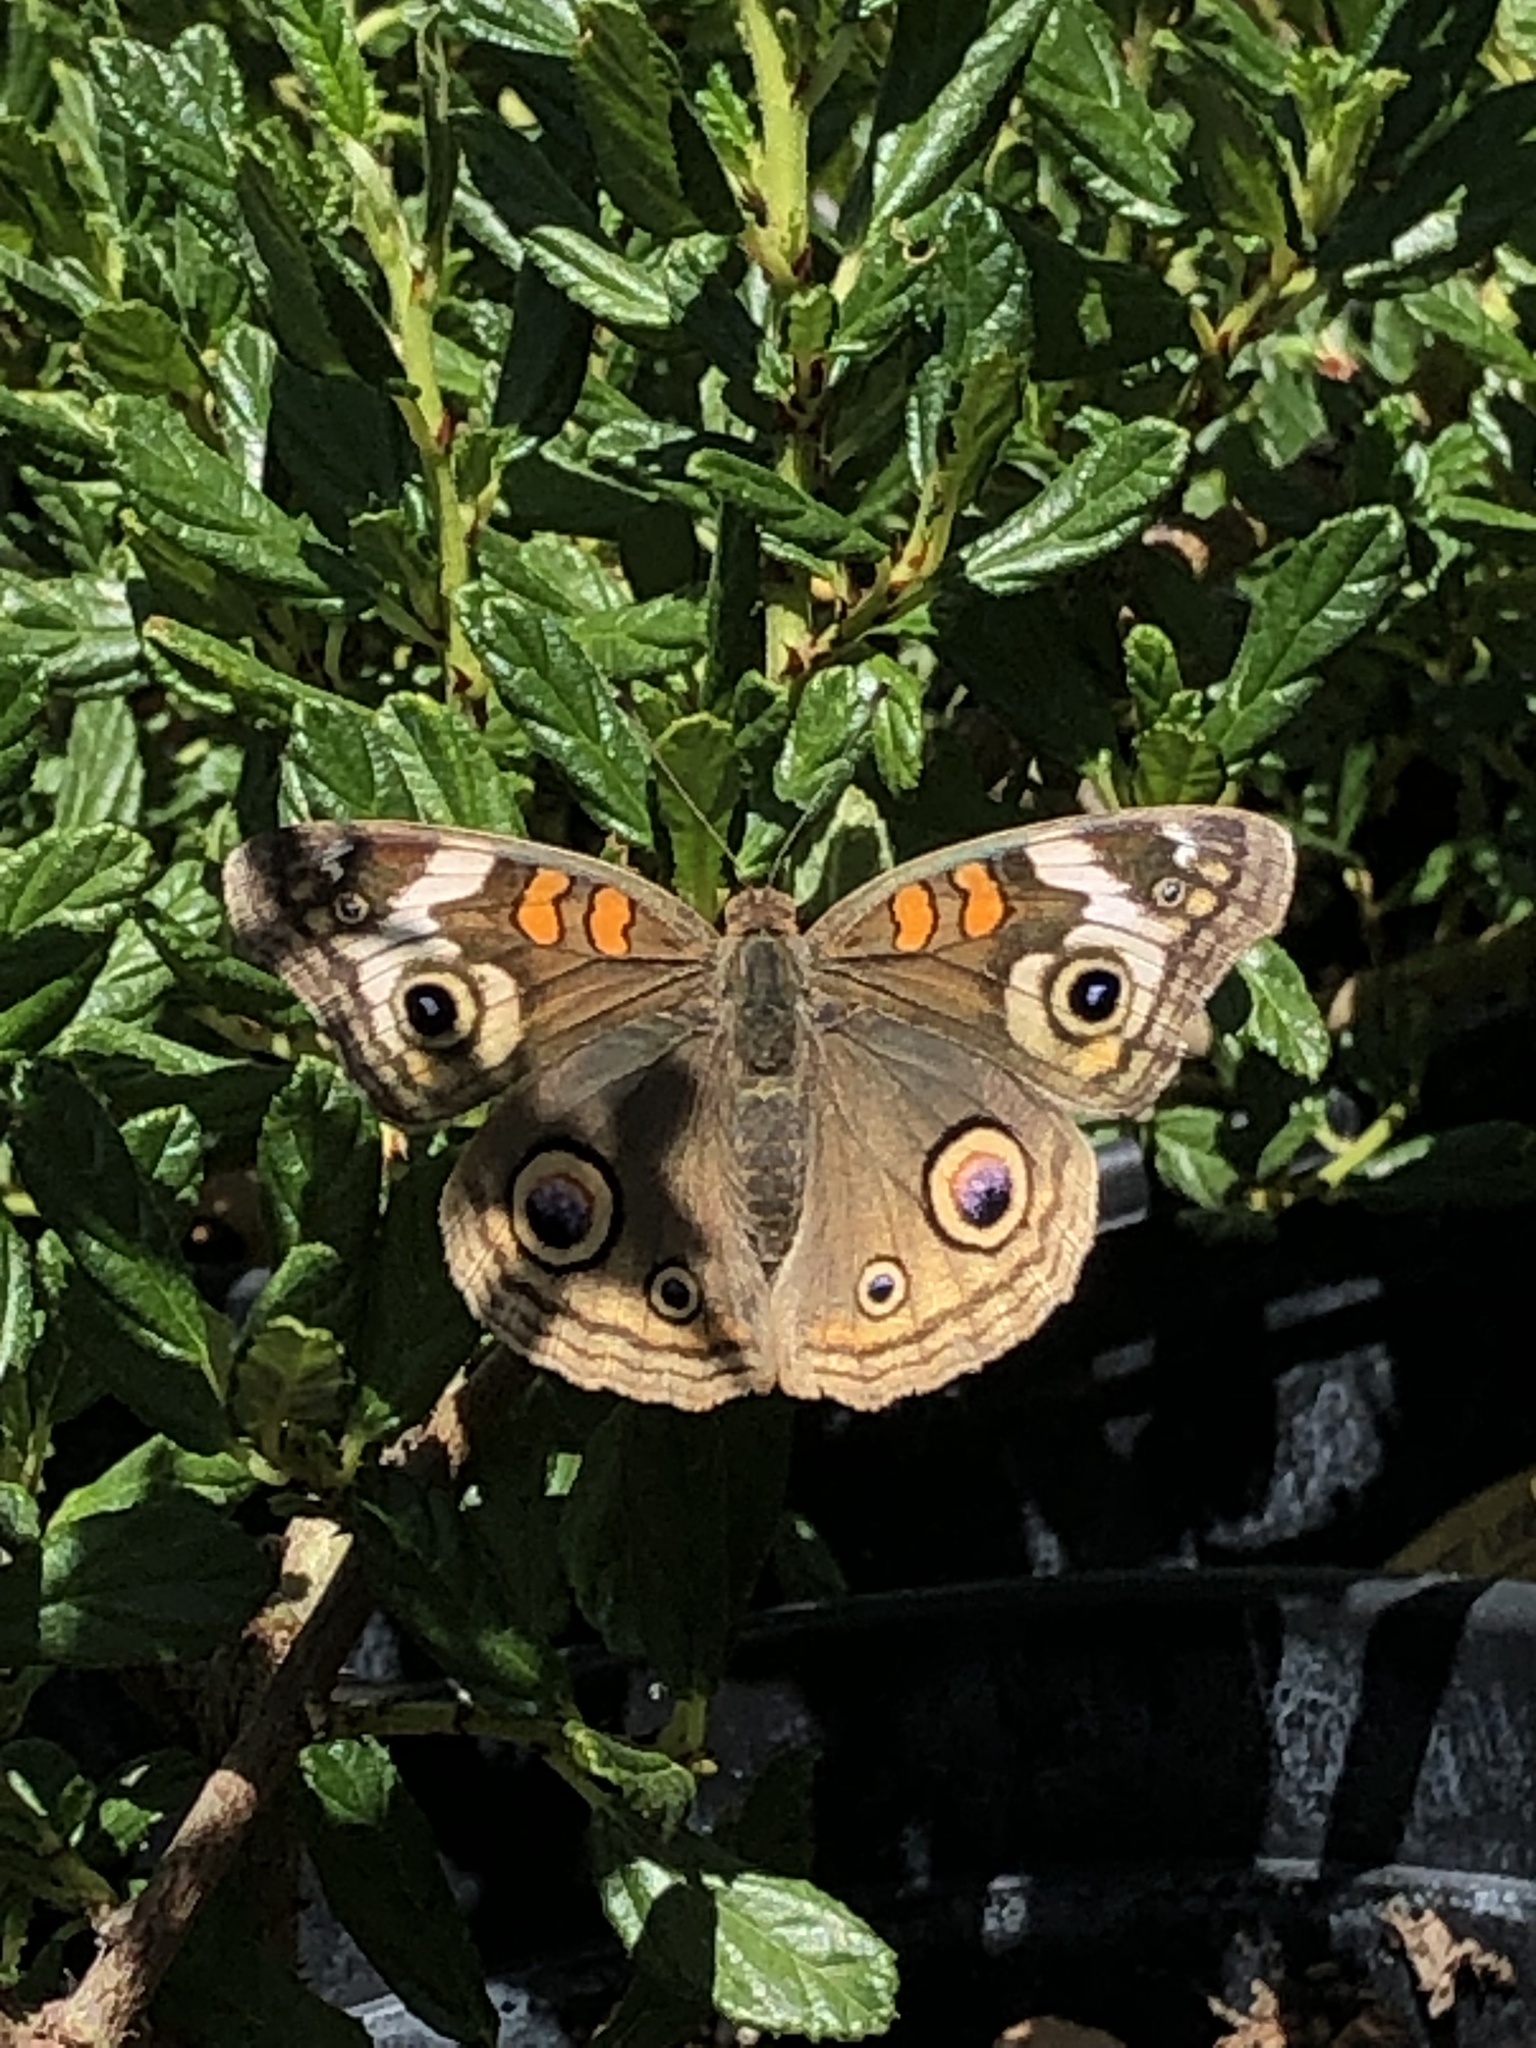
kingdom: Animalia
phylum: Arthropoda
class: Insecta
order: Lepidoptera
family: Nymphalidae
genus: Junonia
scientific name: Junonia grisea
